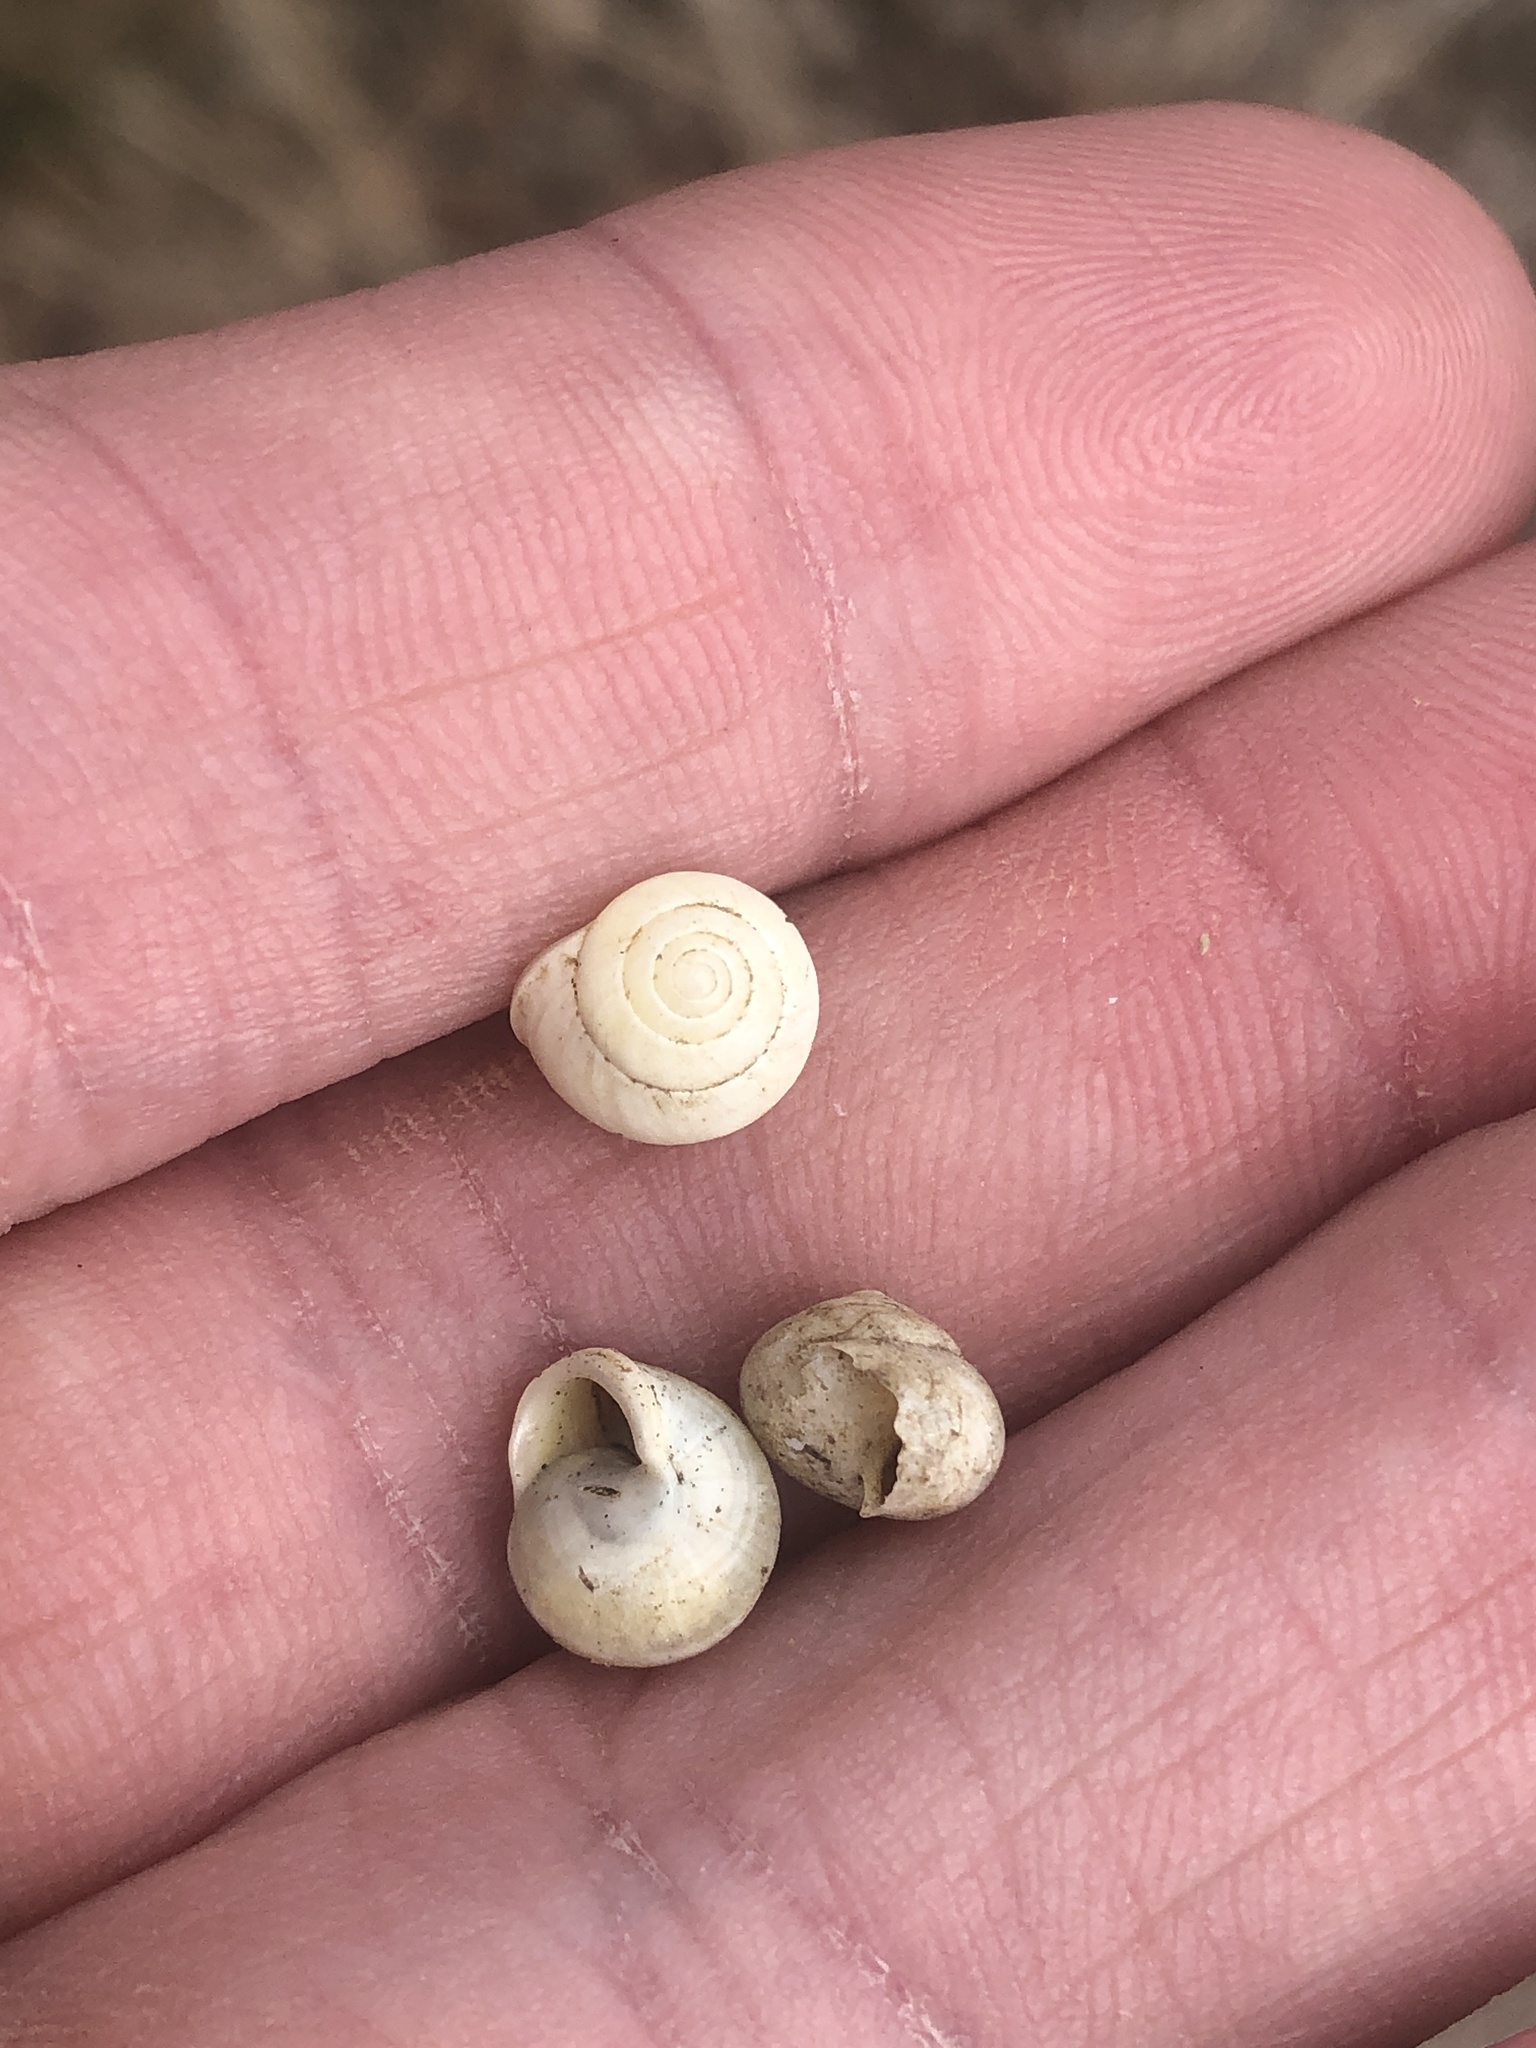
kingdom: Animalia
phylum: Mollusca
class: Gastropoda
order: Cycloneritida
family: Helicinidae
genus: Helicina
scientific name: Helicina orbiculata
